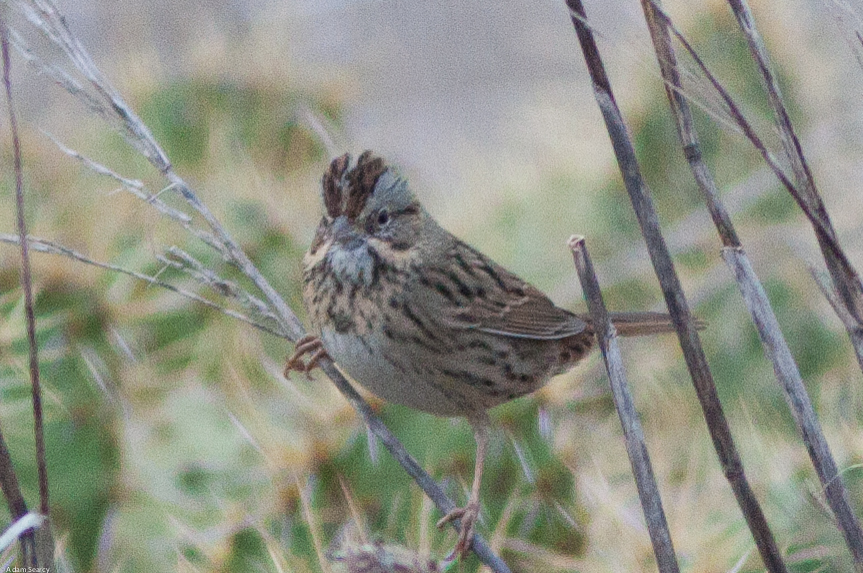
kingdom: Animalia
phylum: Chordata
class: Aves
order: Passeriformes
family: Passerellidae
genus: Melospiza
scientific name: Melospiza lincolnii
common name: Lincoln's sparrow
